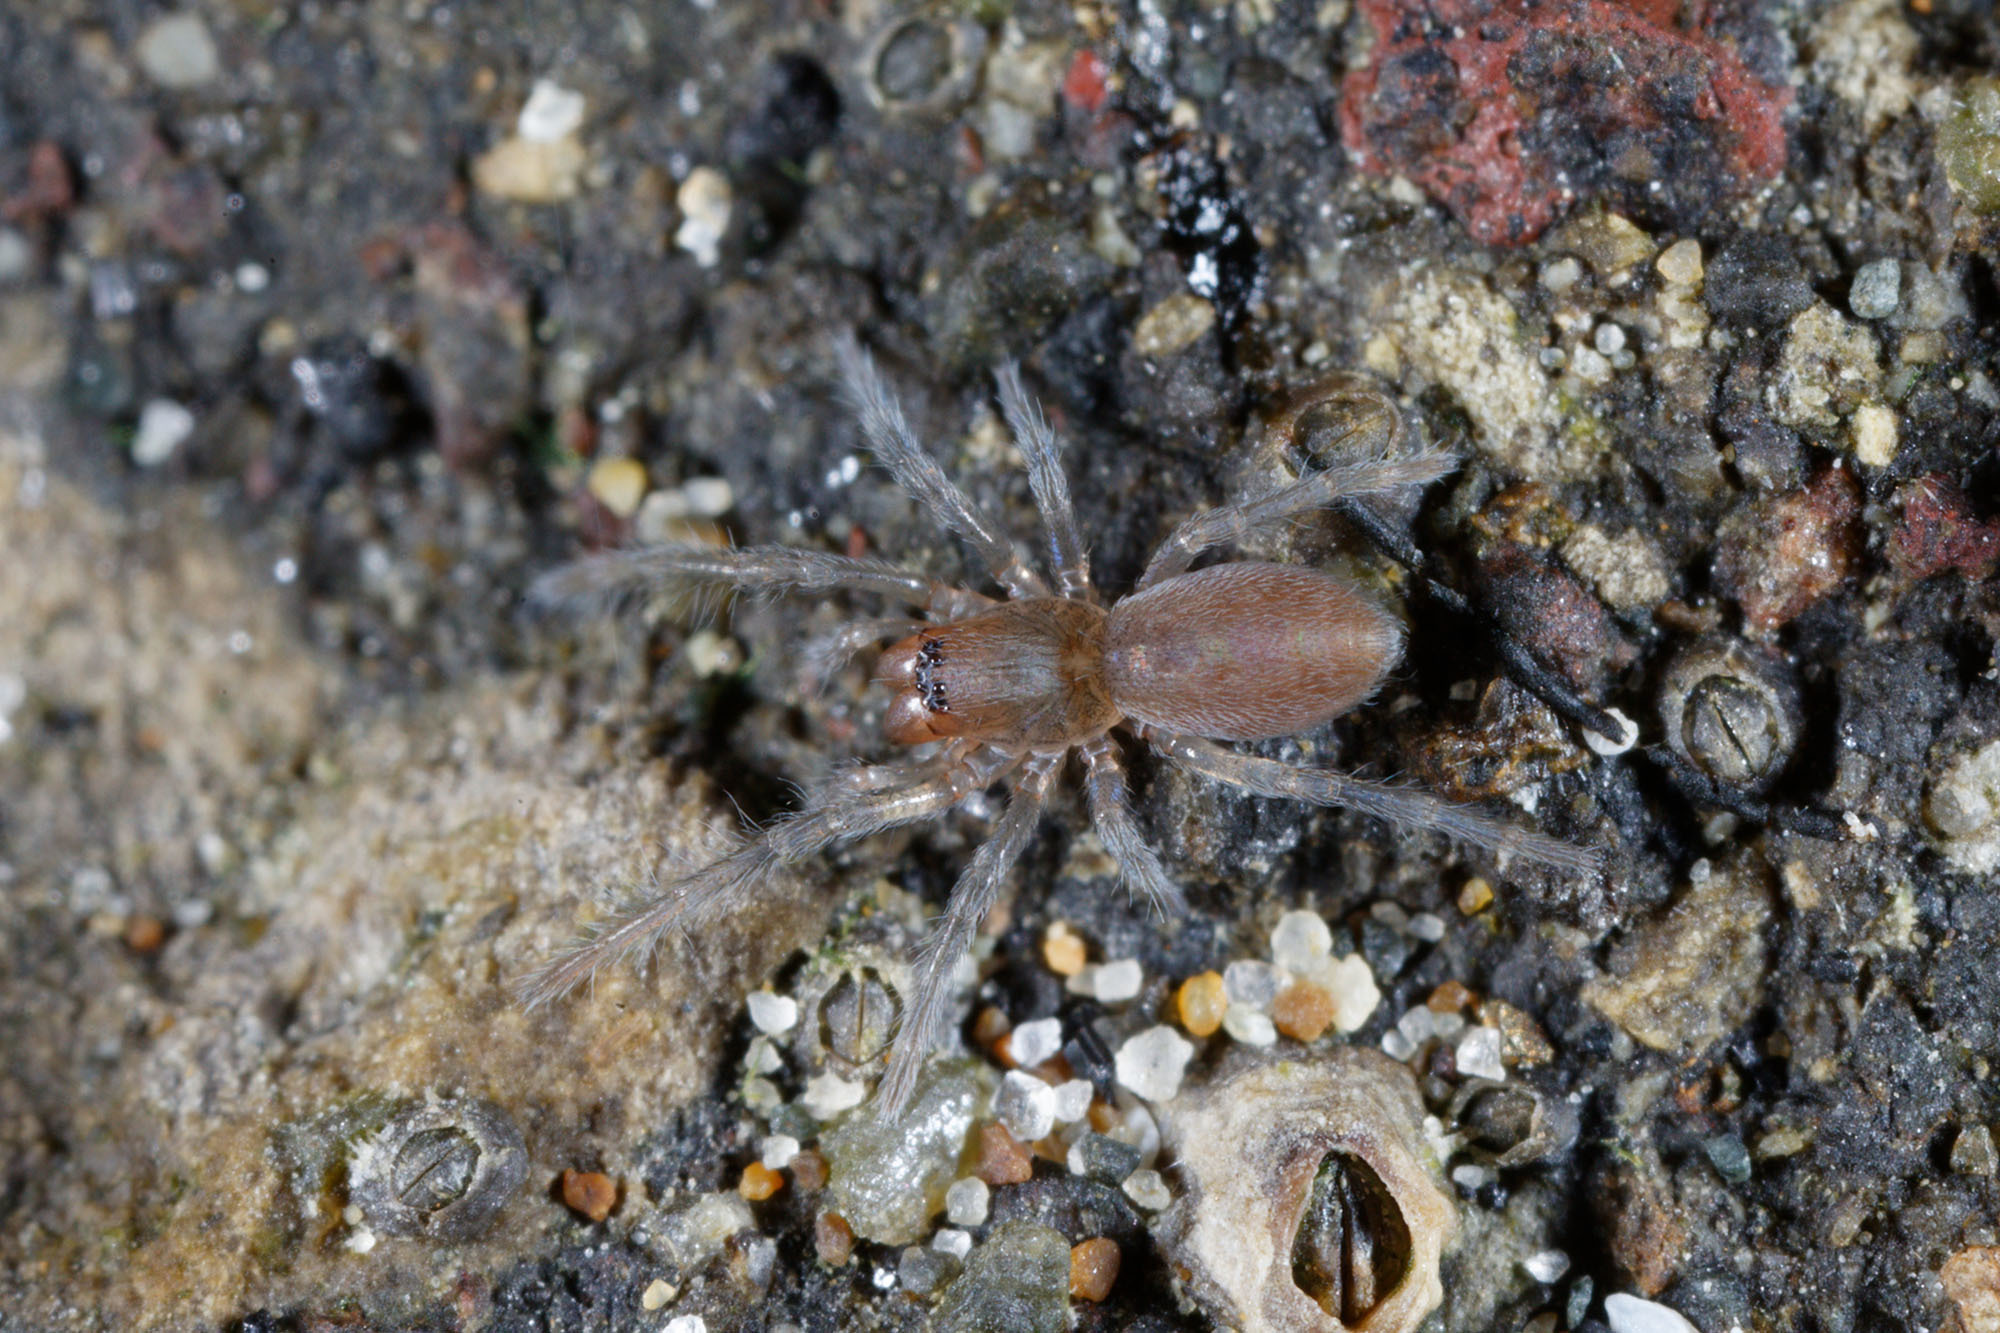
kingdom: Animalia
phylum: Arthropoda
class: Arachnida
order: Araneae
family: Desidae
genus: Desis
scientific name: Desis marina
